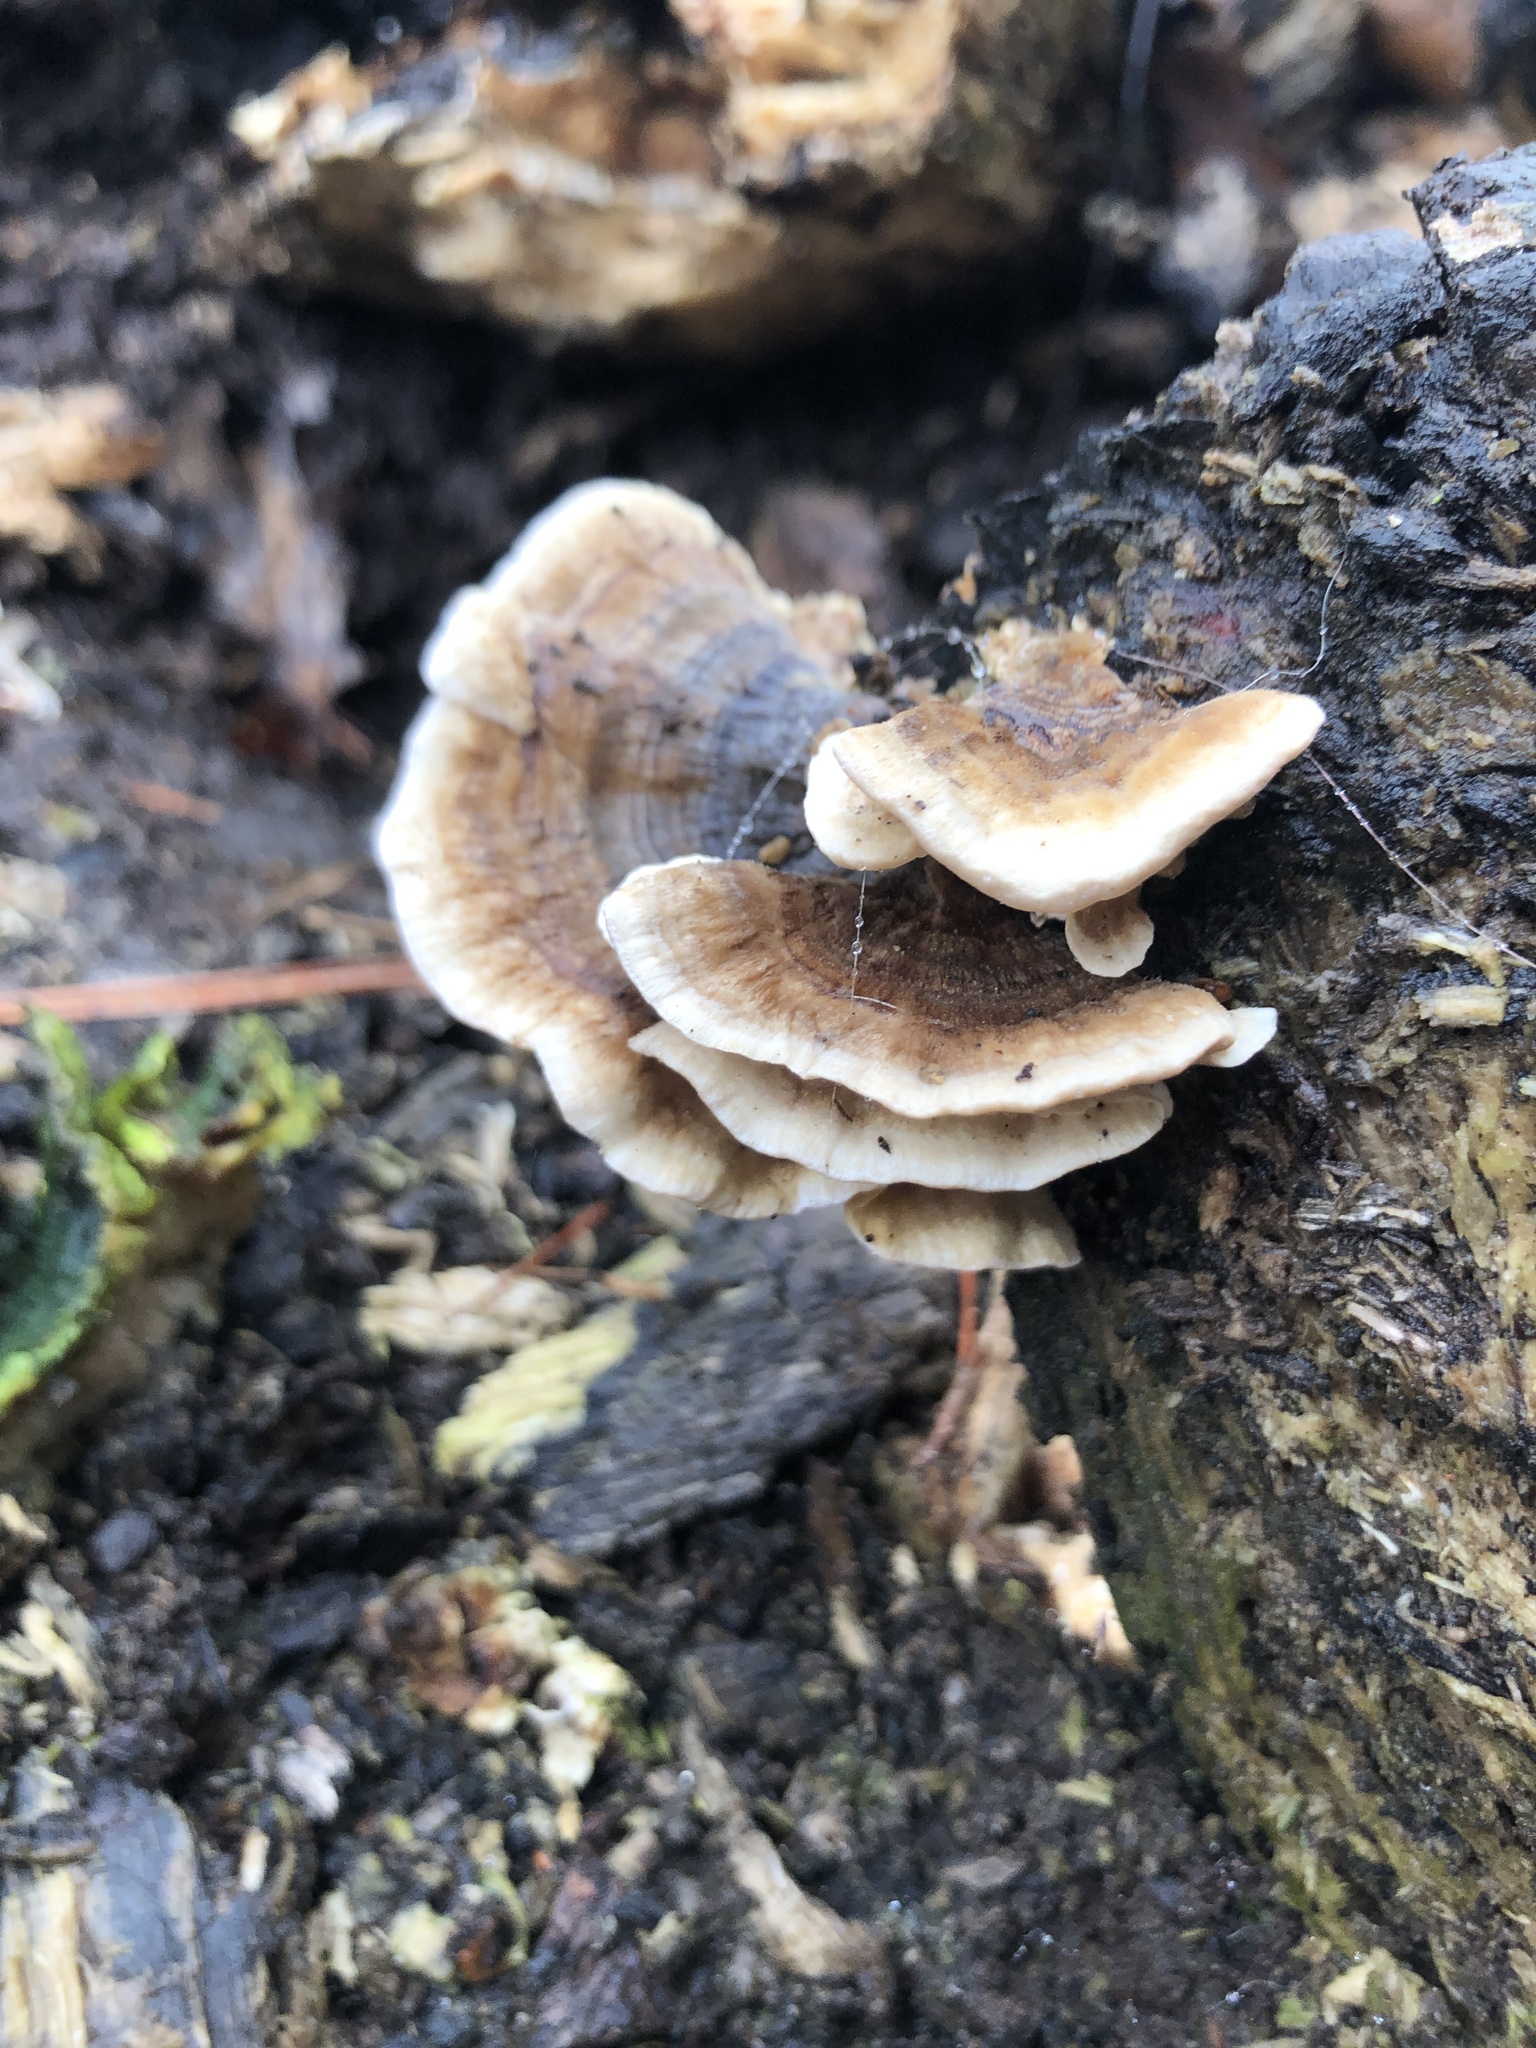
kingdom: Fungi
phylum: Basidiomycota
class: Agaricomycetes
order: Polyporales
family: Polyporaceae
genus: Trametes
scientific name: Trametes versicolor
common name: Turkeytail
